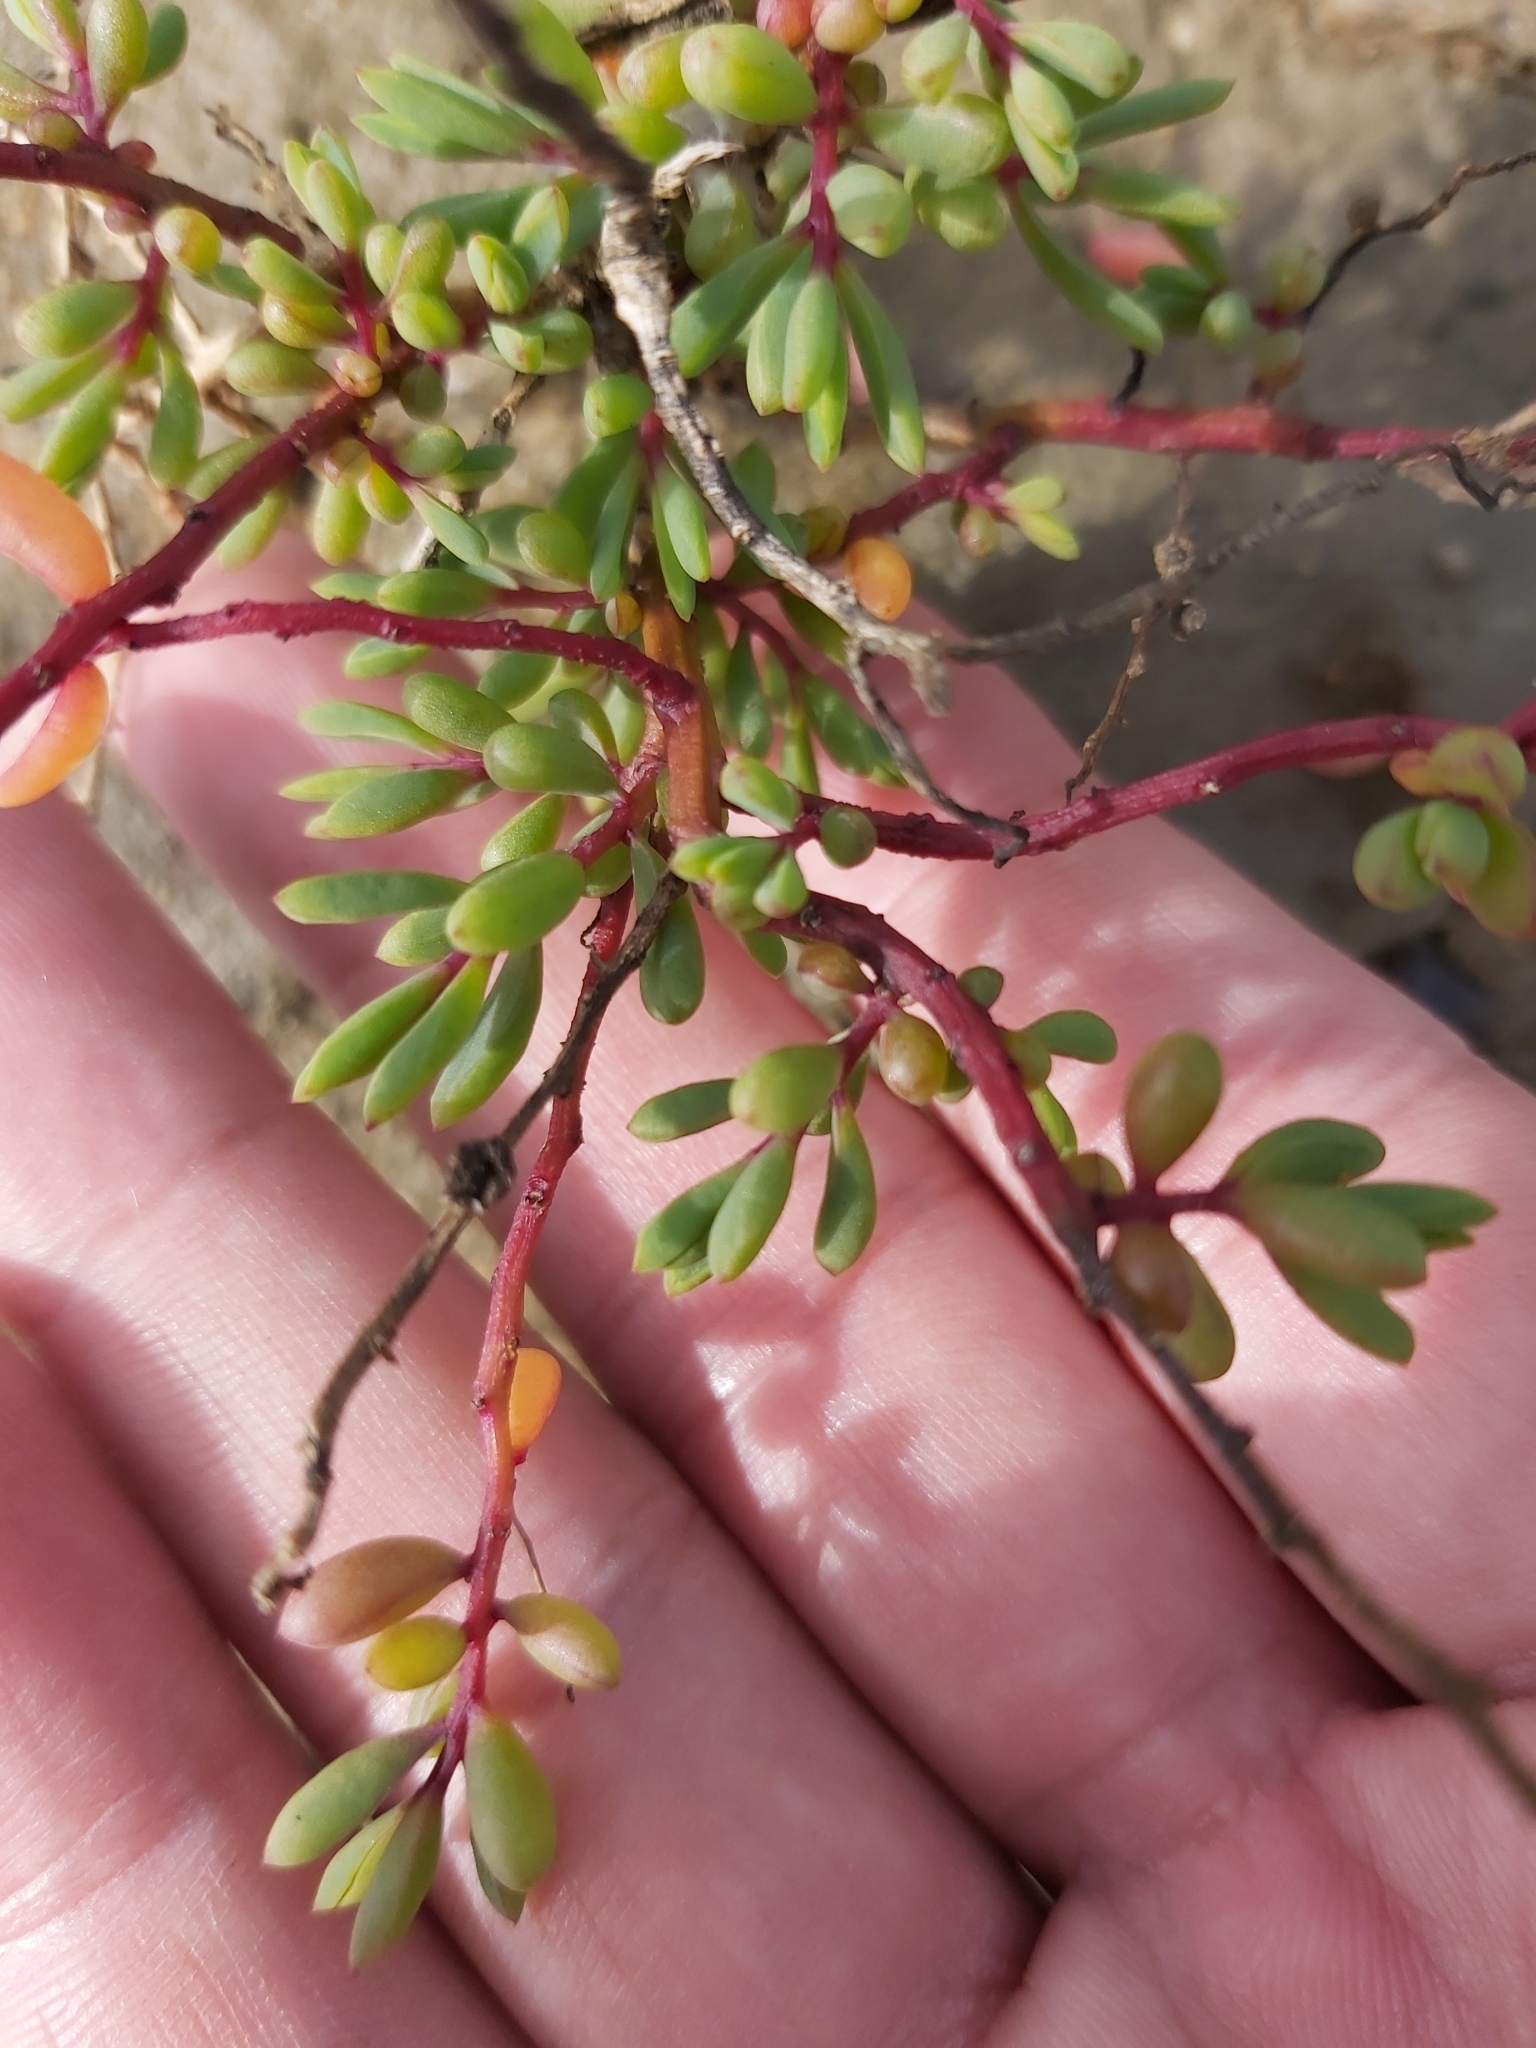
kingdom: Plantae
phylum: Tracheophyta
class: Magnoliopsida
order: Caryophyllales
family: Amaranthaceae
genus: Suaeda
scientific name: Suaeda arbusculoides
